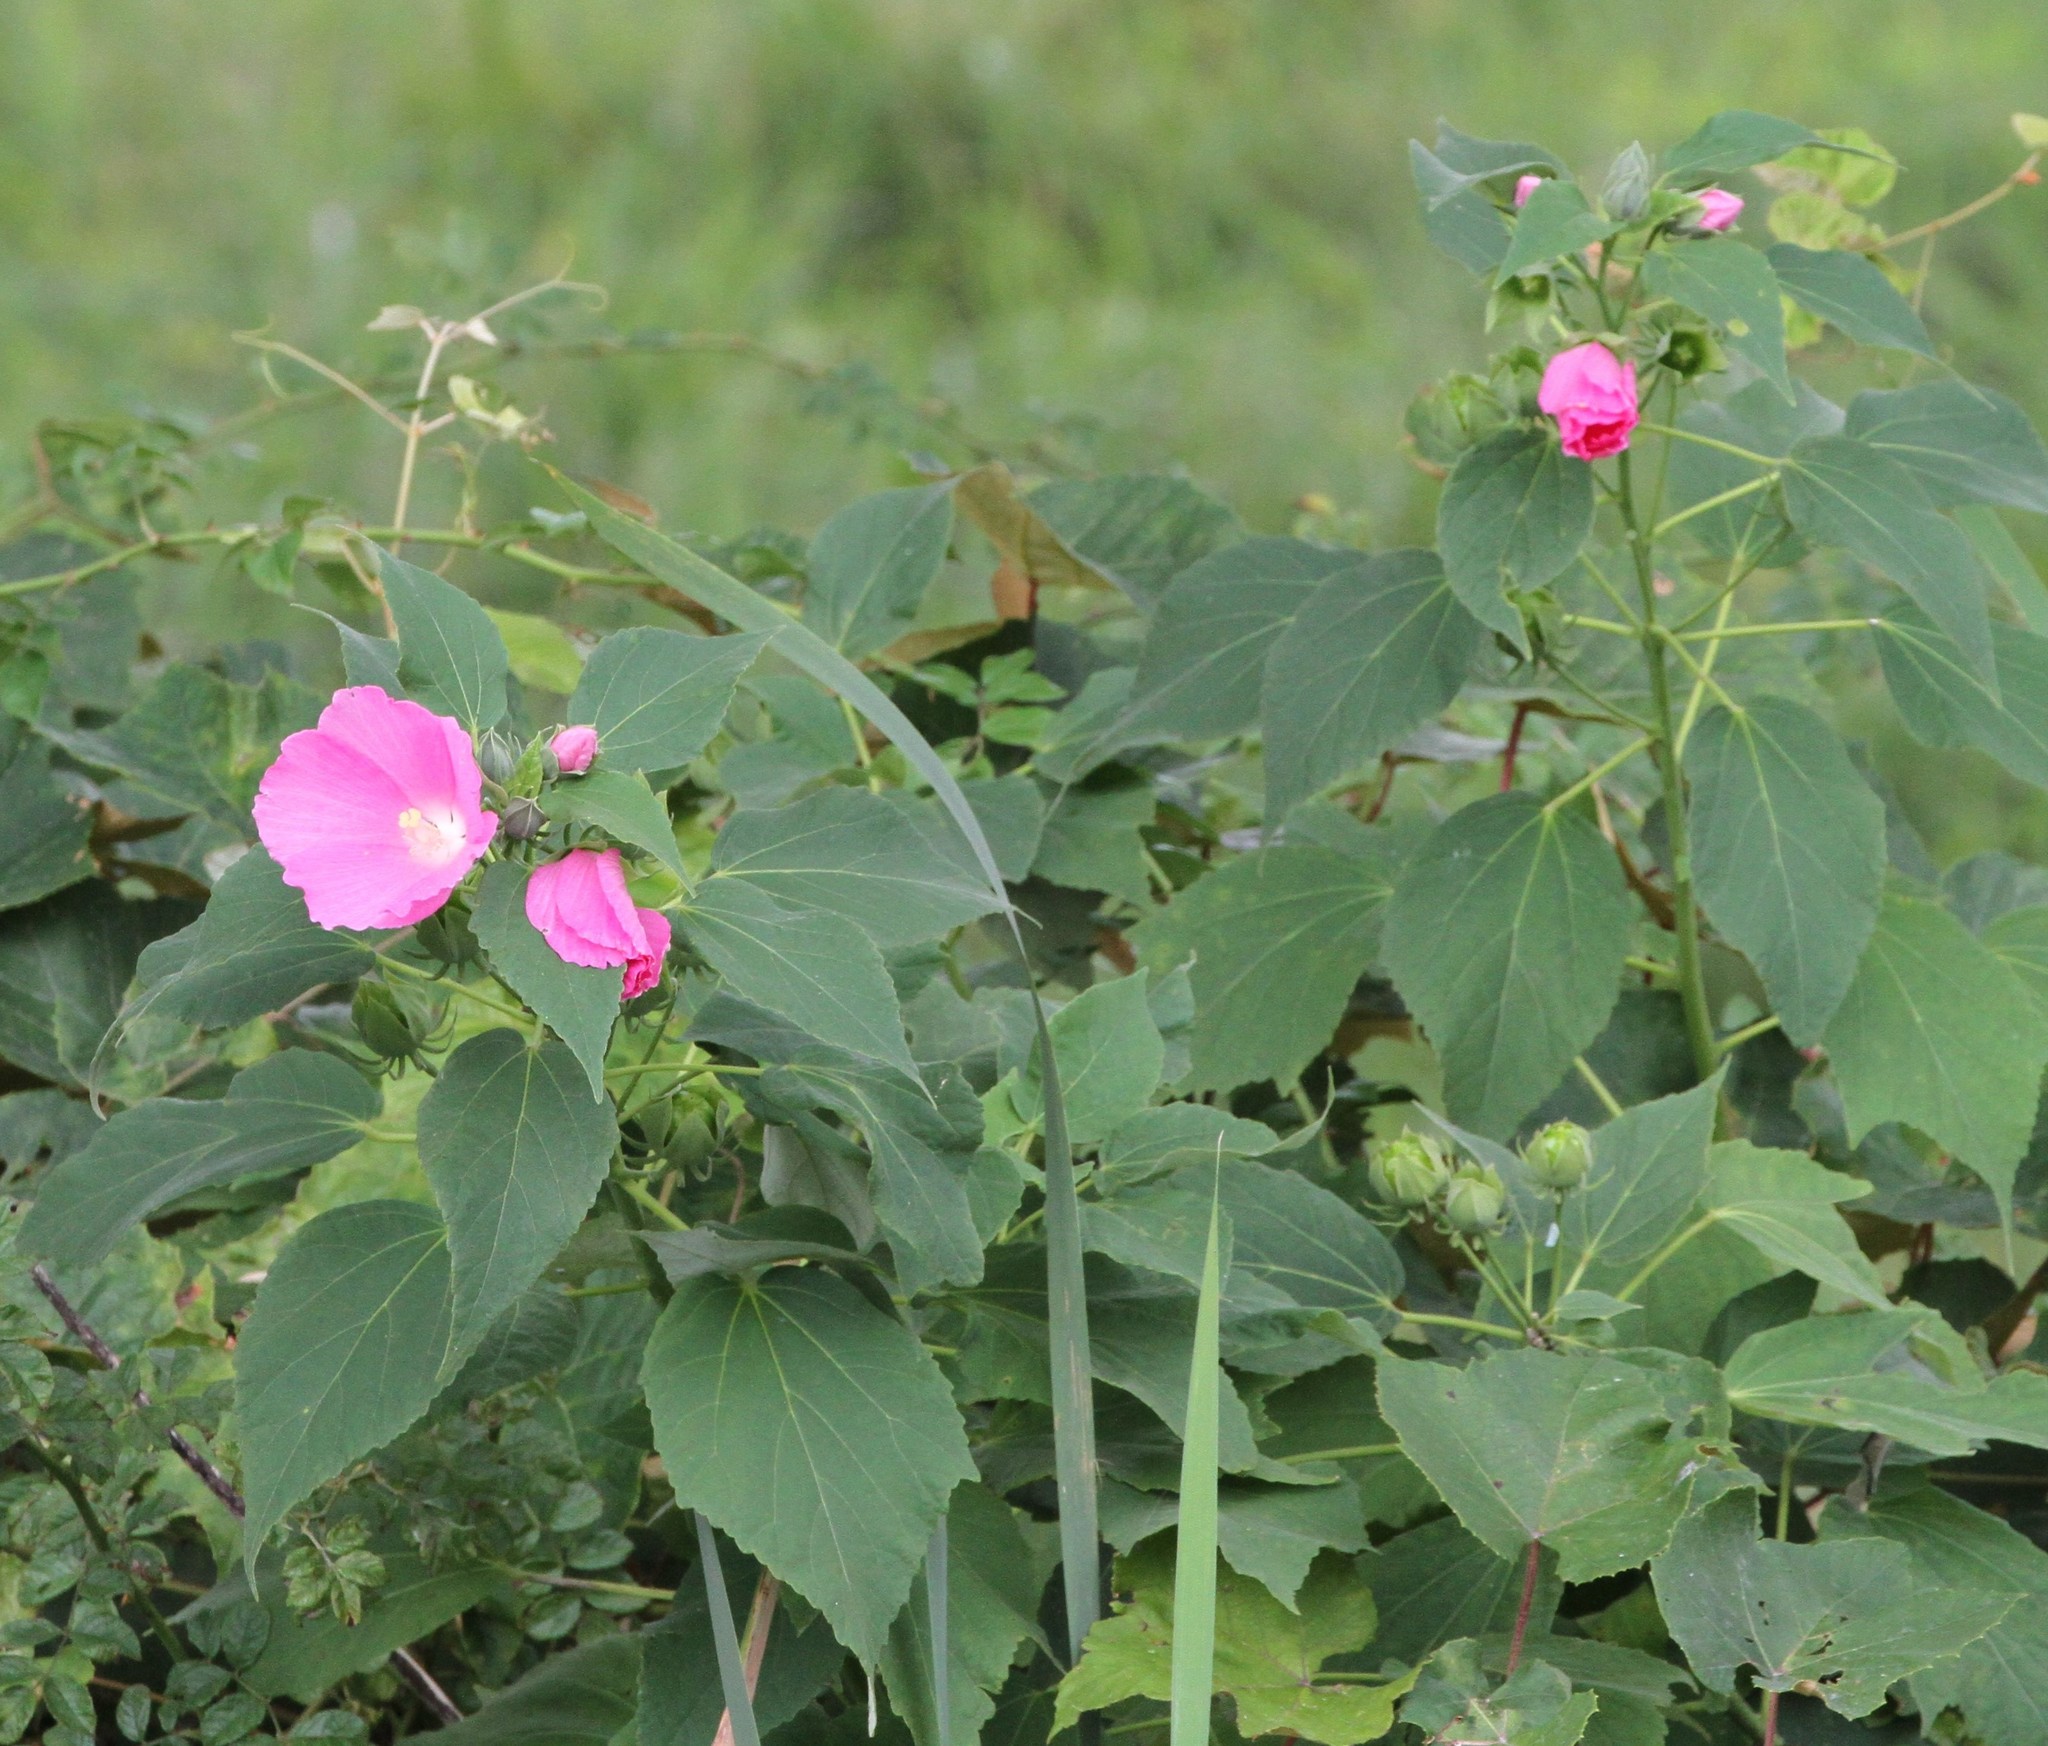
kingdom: Plantae
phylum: Tracheophyta
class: Magnoliopsida
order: Malvales
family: Malvaceae
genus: Hibiscus
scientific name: Hibiscus moscheutos
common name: Common rose-mallow
